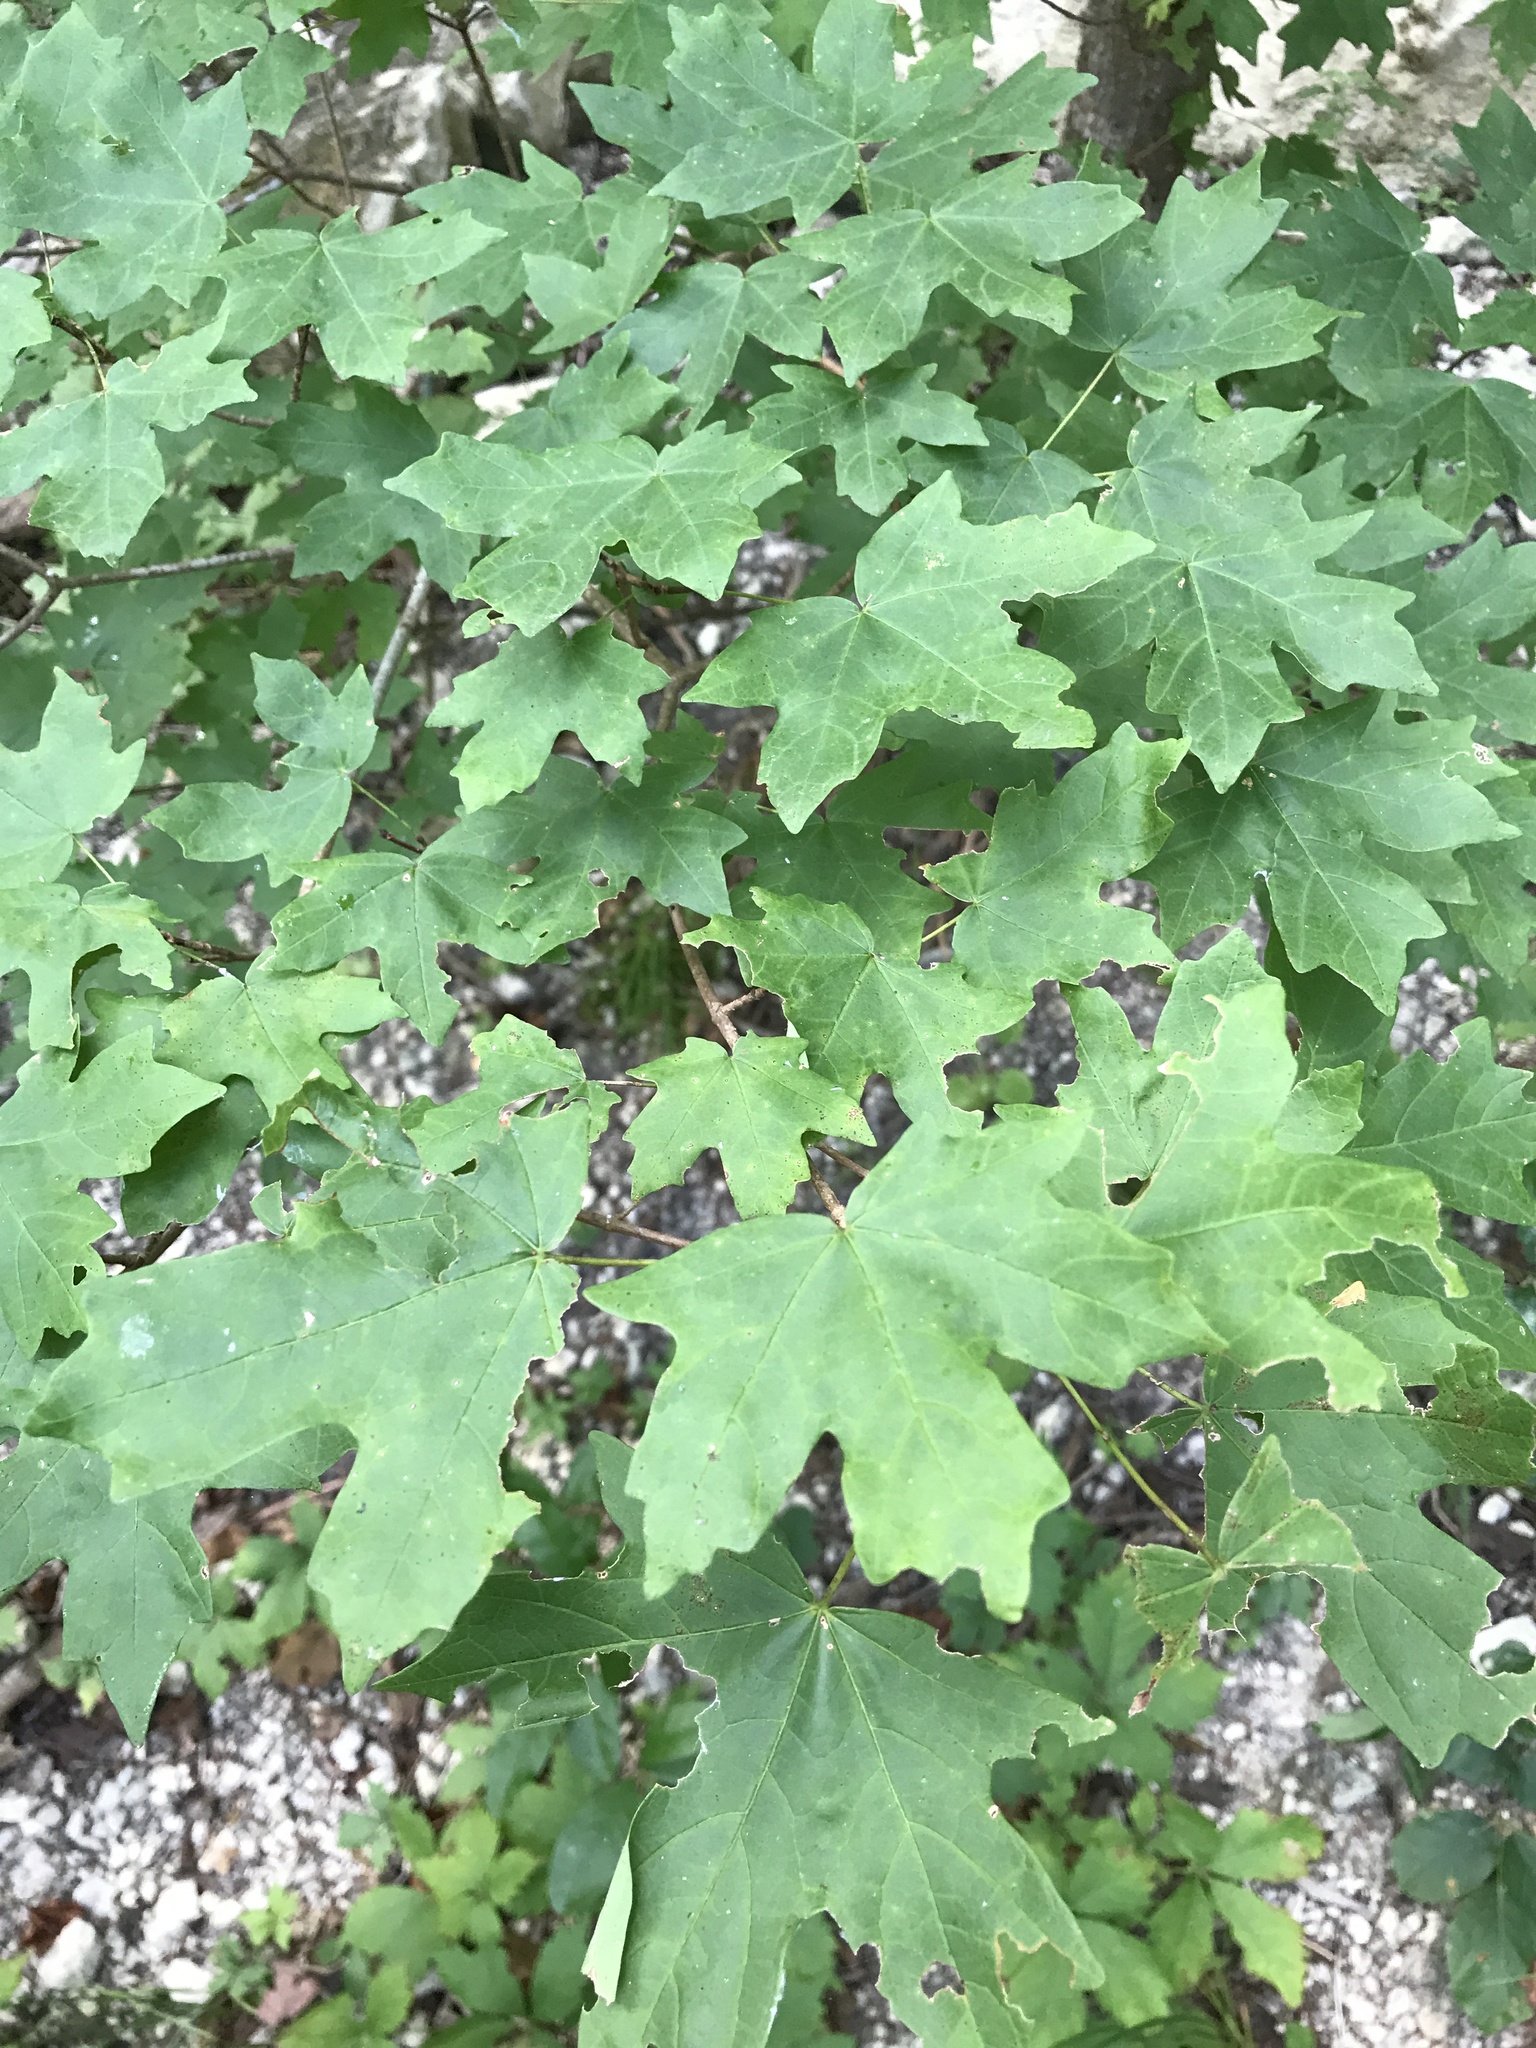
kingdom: Plantae
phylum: Tracheophyta
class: Magnoliopsida
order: Sapindales
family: Sapindaceae
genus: Acer
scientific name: Acer grandidentatum
